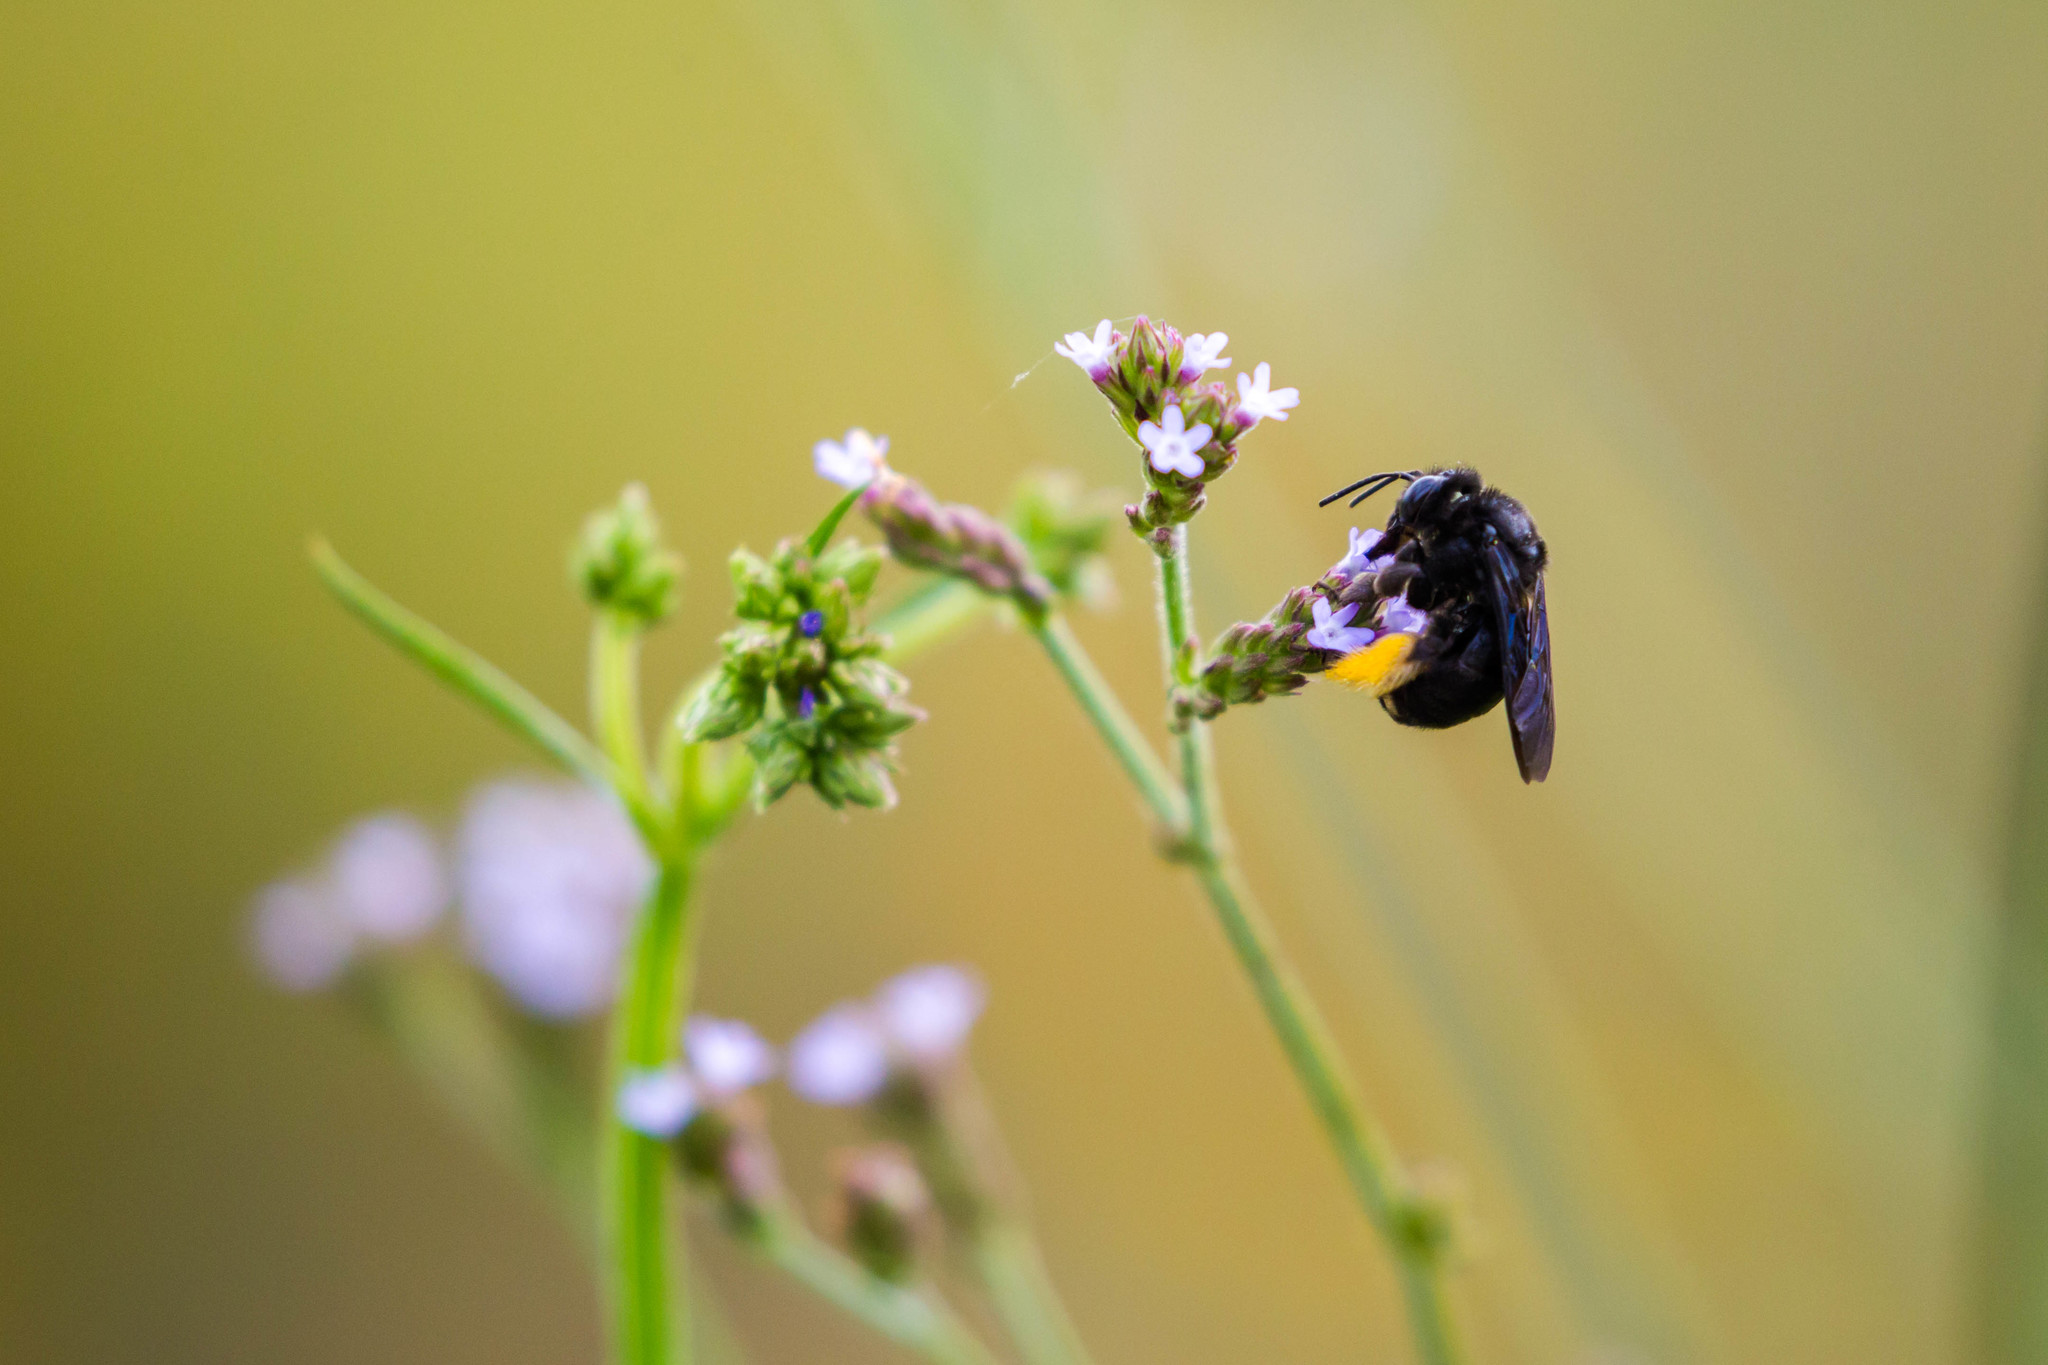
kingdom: Animalia
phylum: Arthropoda
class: Insecta
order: Hymenoptera
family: Apidae
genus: Melissodes
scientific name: Melissodes bimaculatus
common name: Two-spotted long-horned bee
